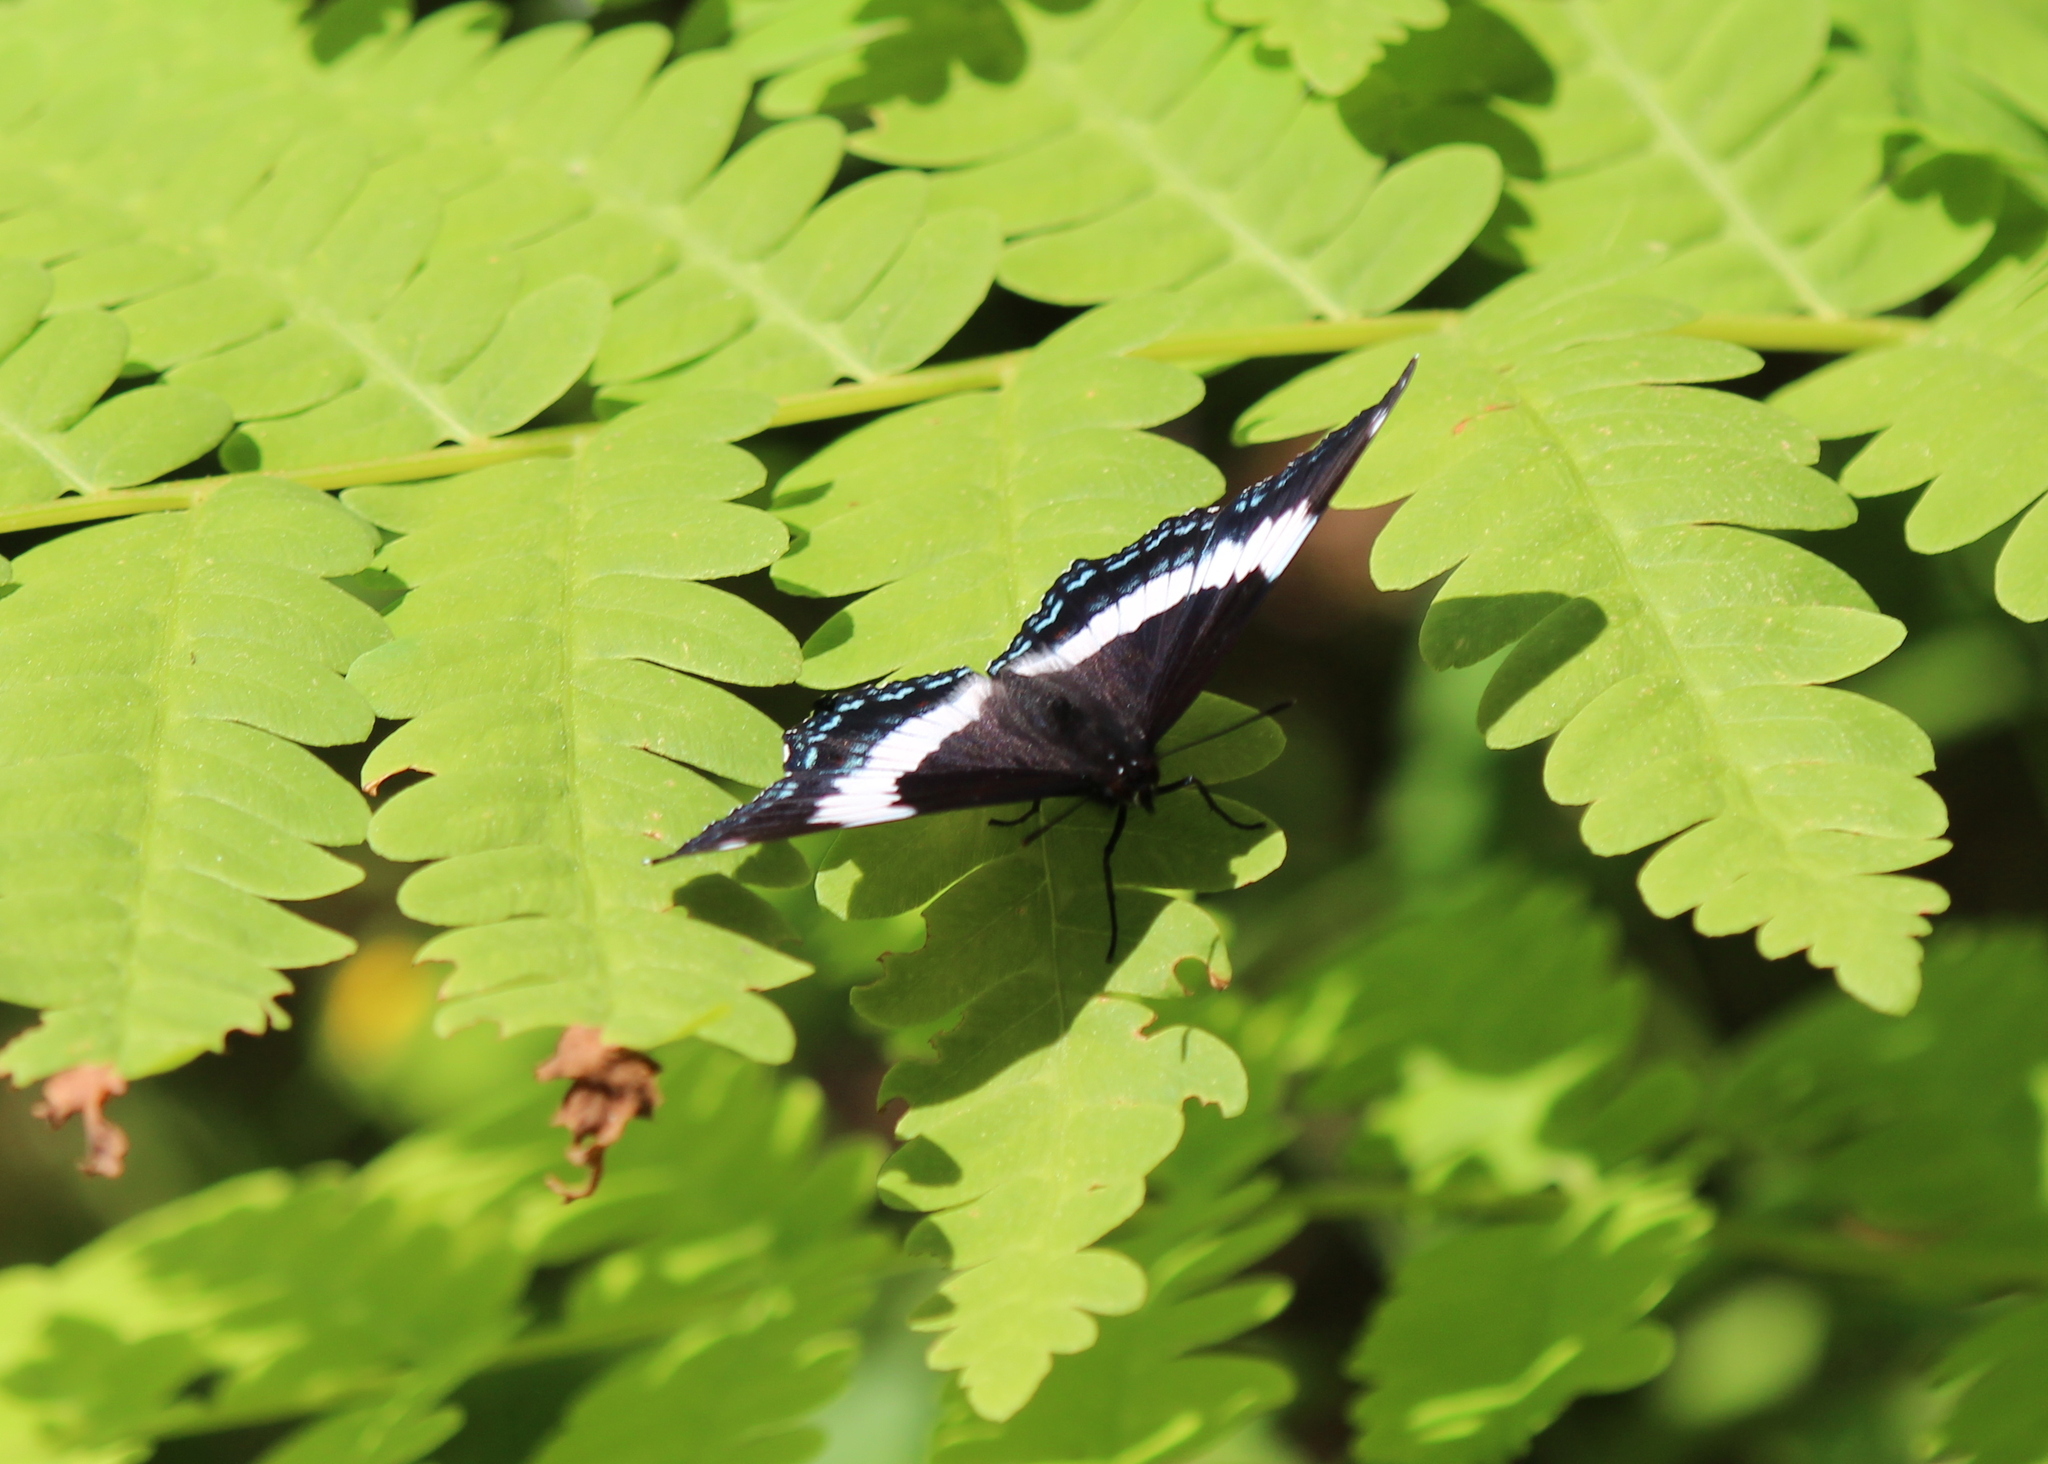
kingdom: Animalia
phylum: Arthropoda
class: Insecta
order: Lepidoptera
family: Nymphalidae
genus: Limenitis
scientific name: Limenitis arthemis
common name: Red-spotted admiral
